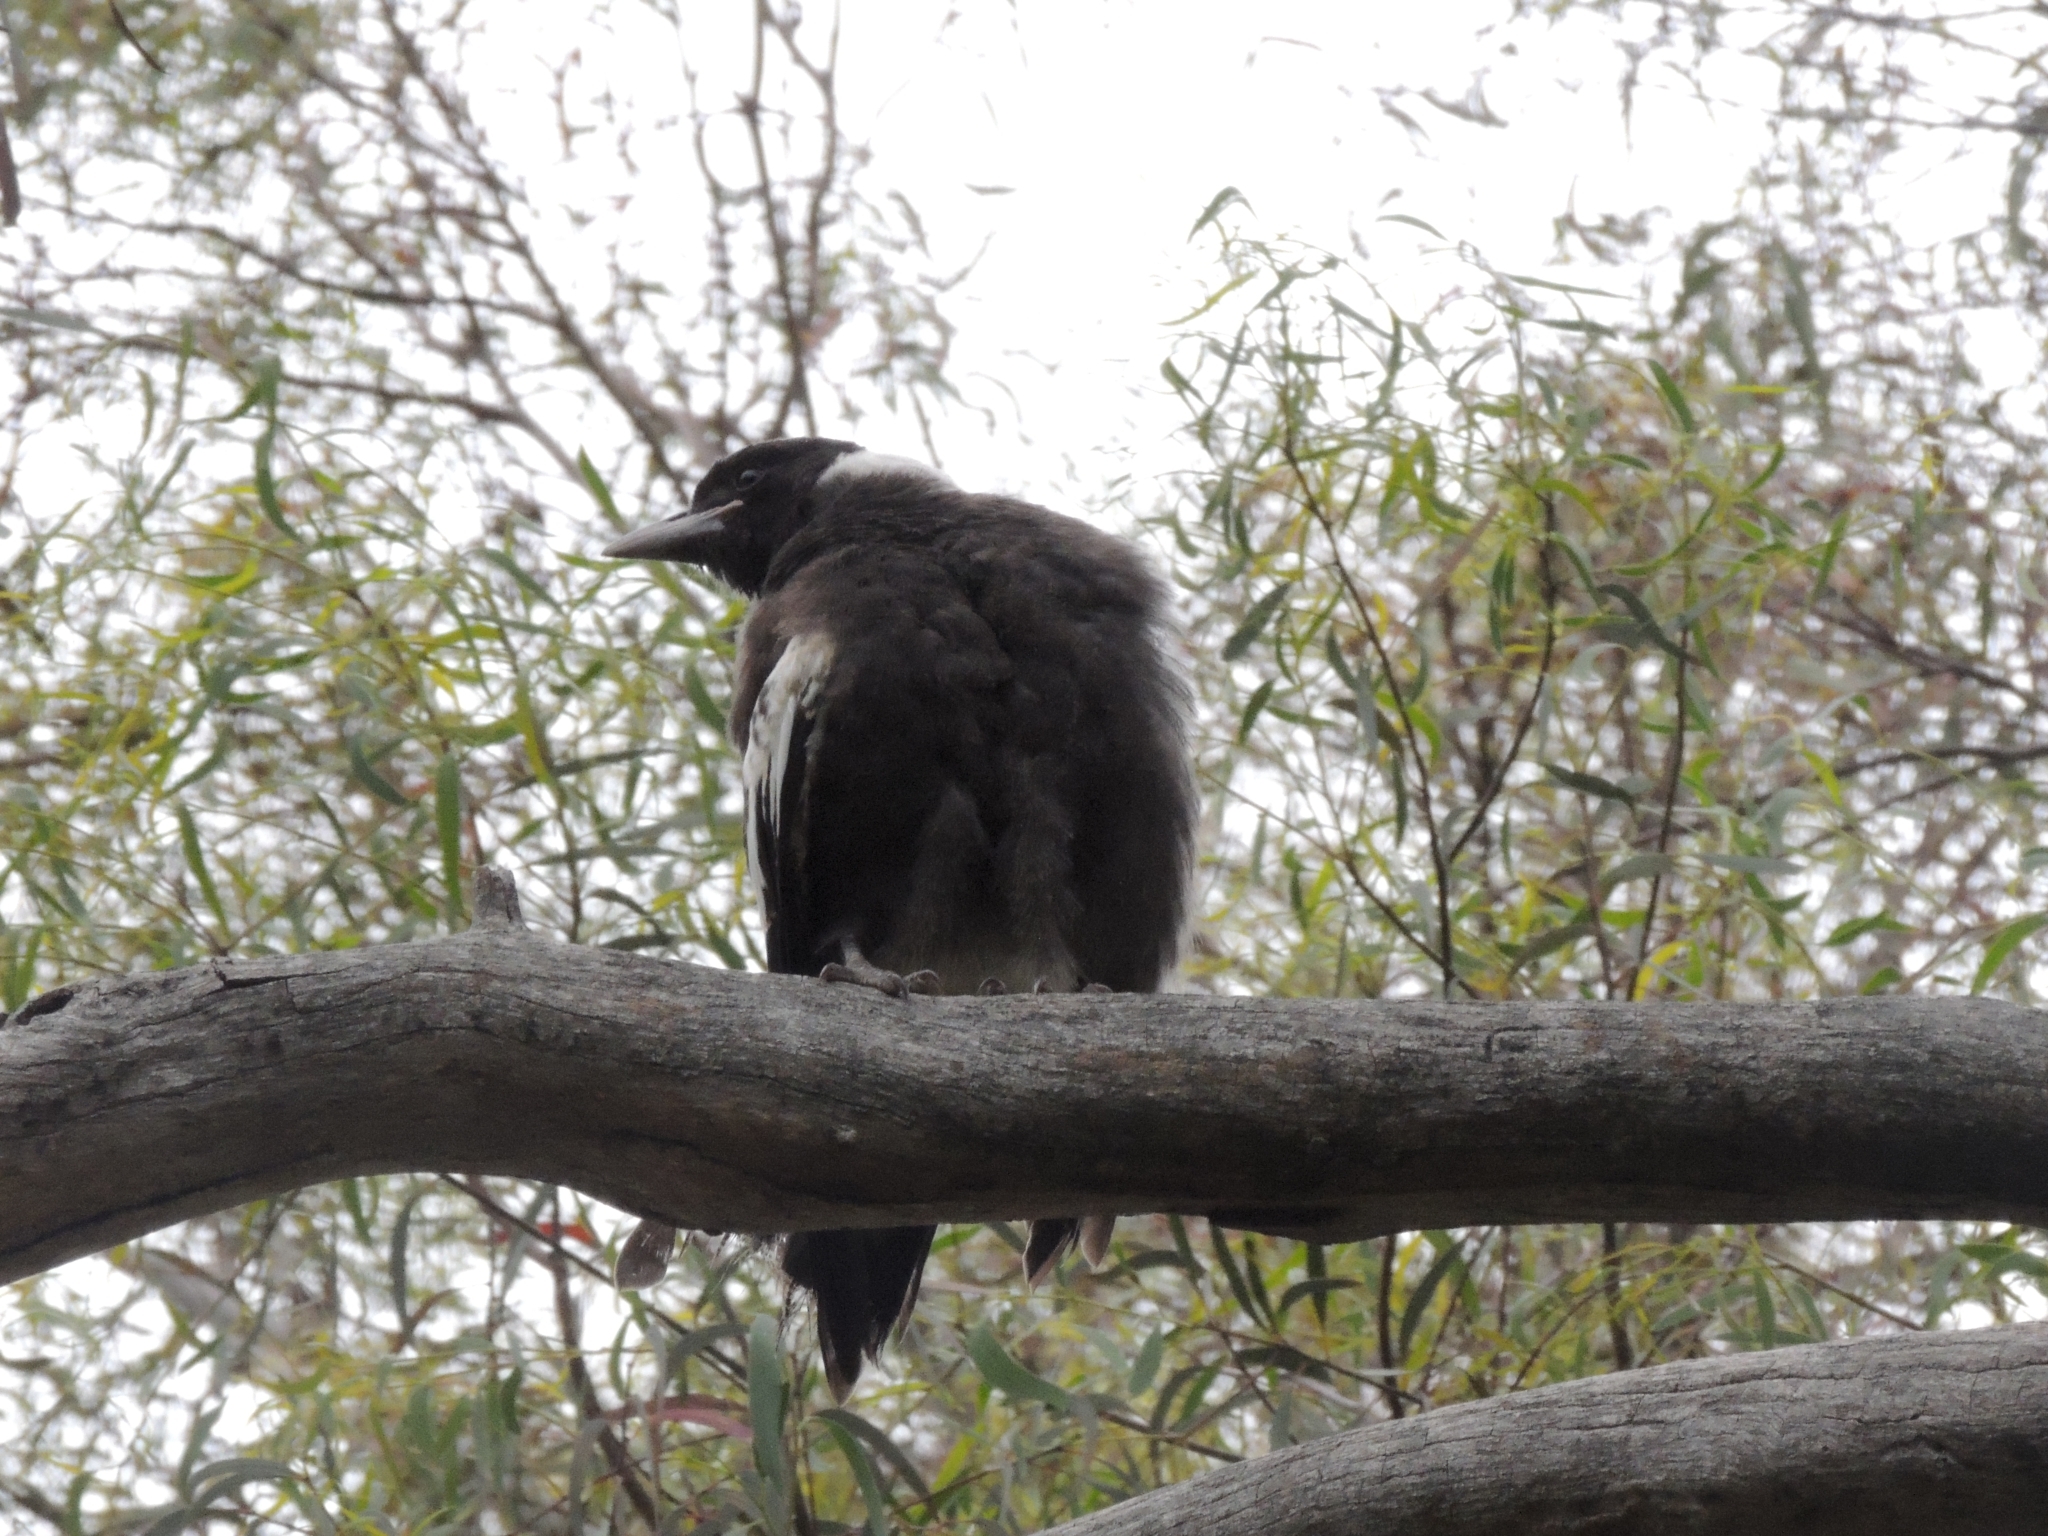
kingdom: Animalia
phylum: Chordata
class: Aves
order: Passeriformes
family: Cracticidae
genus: Gymnorhina
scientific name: Gymnorhina tibicen
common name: Australian magpie
